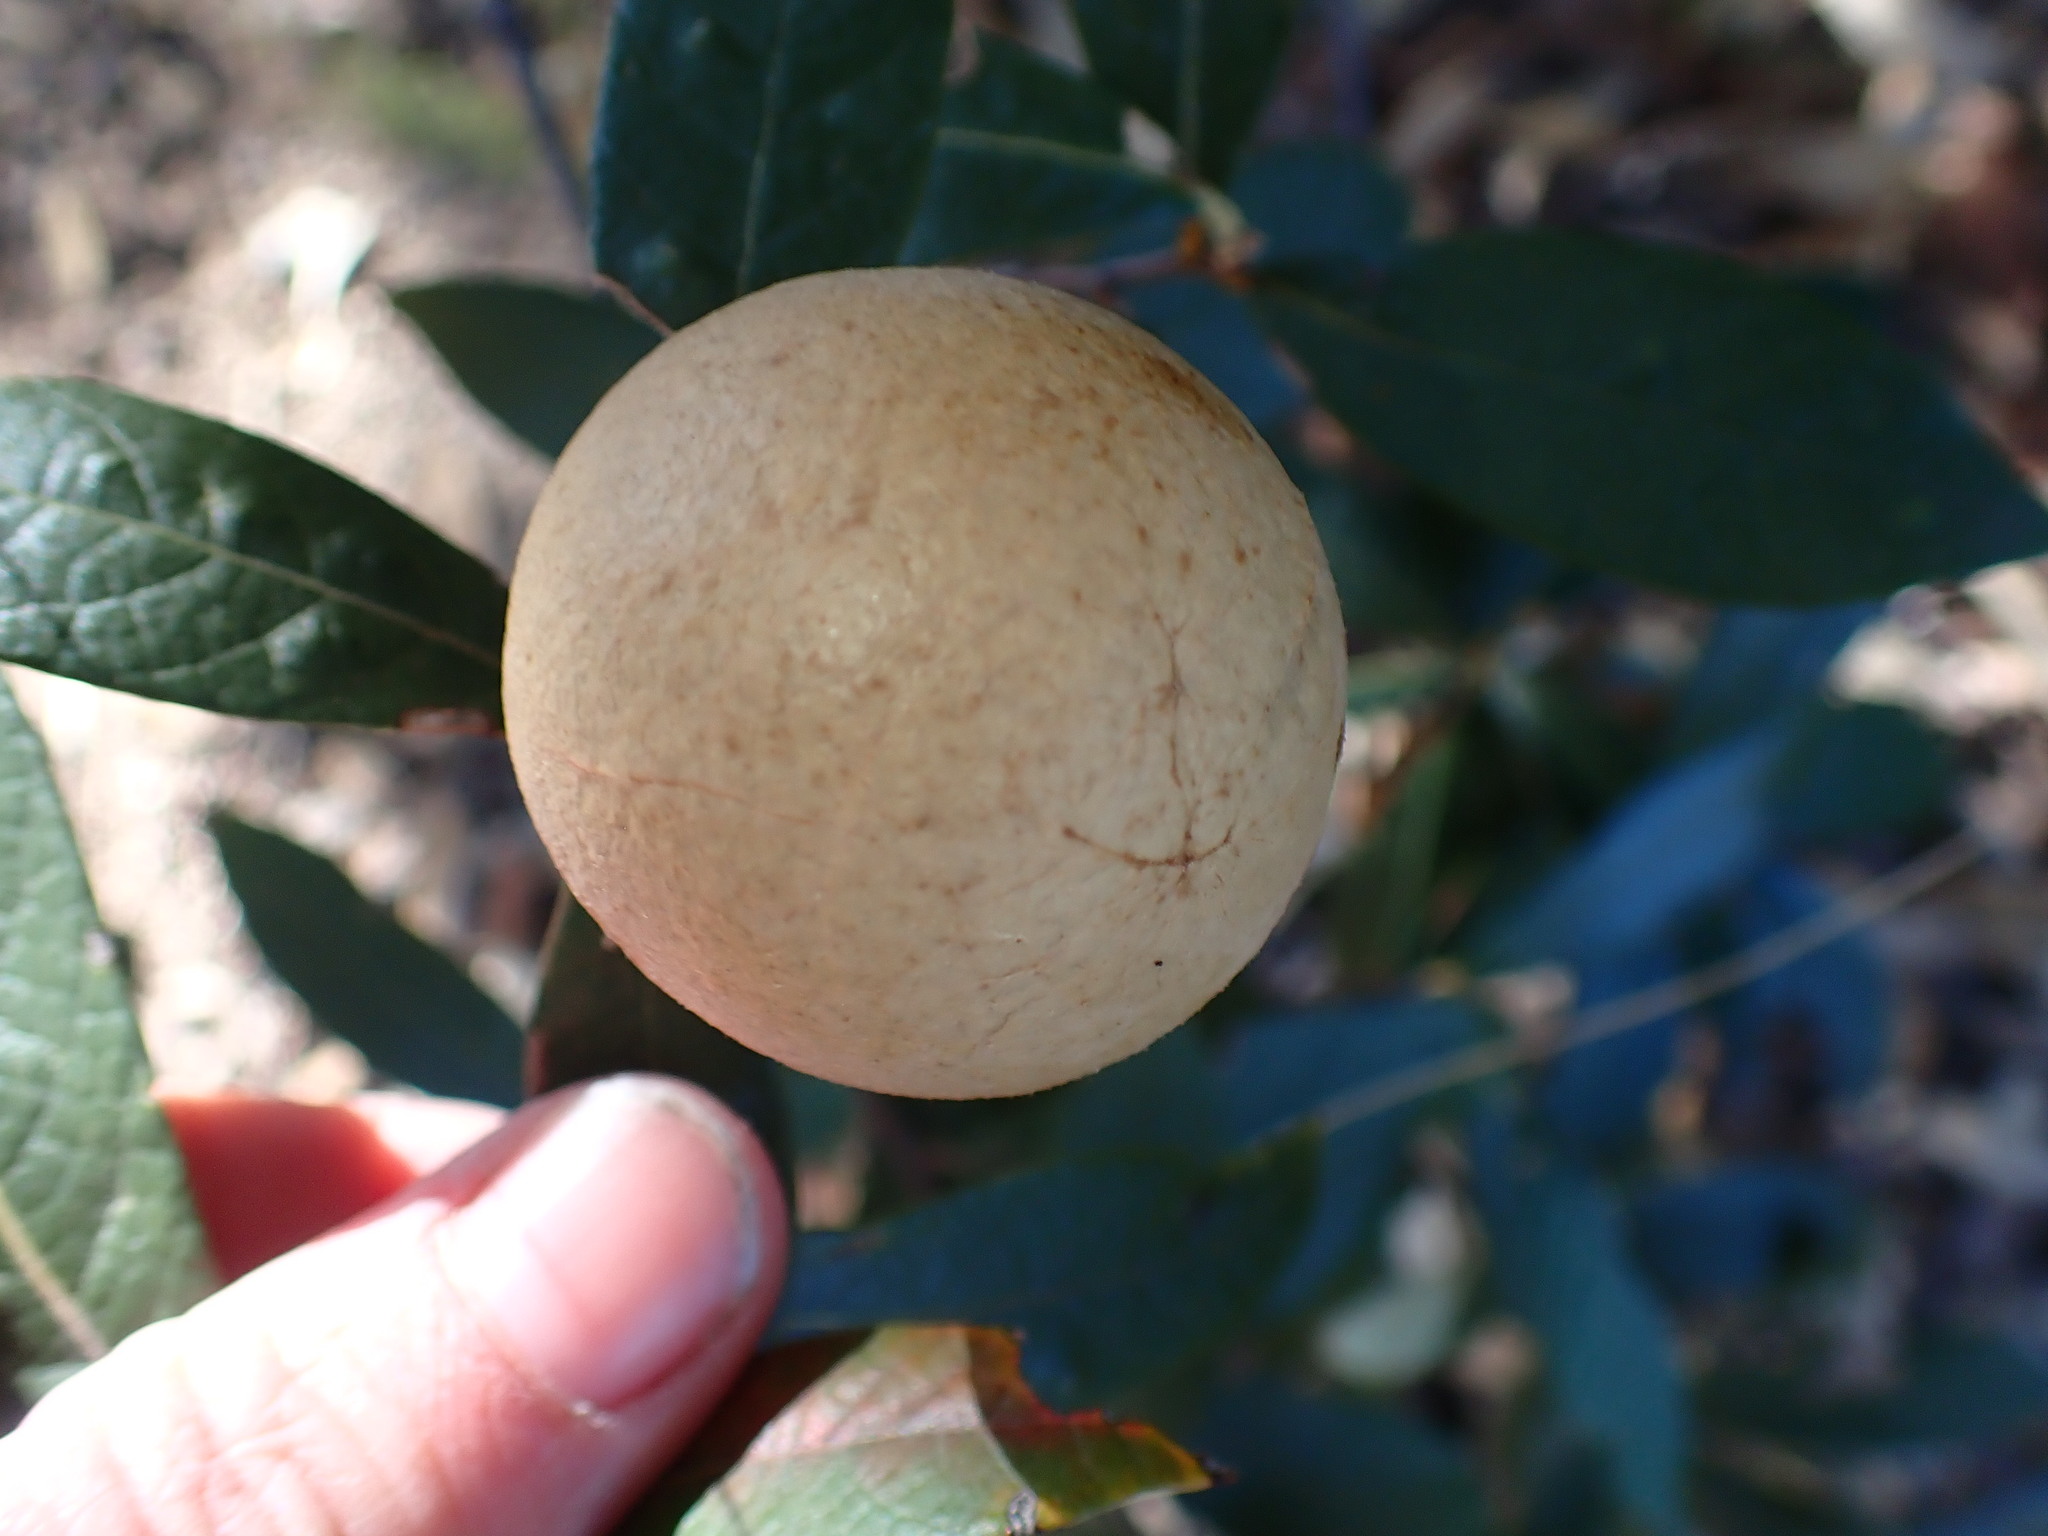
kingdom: Animalia
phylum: Arthropoda
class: Insecta
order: Hymenoptera
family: Cynipidae
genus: Amphibolips
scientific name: Amphibolips
